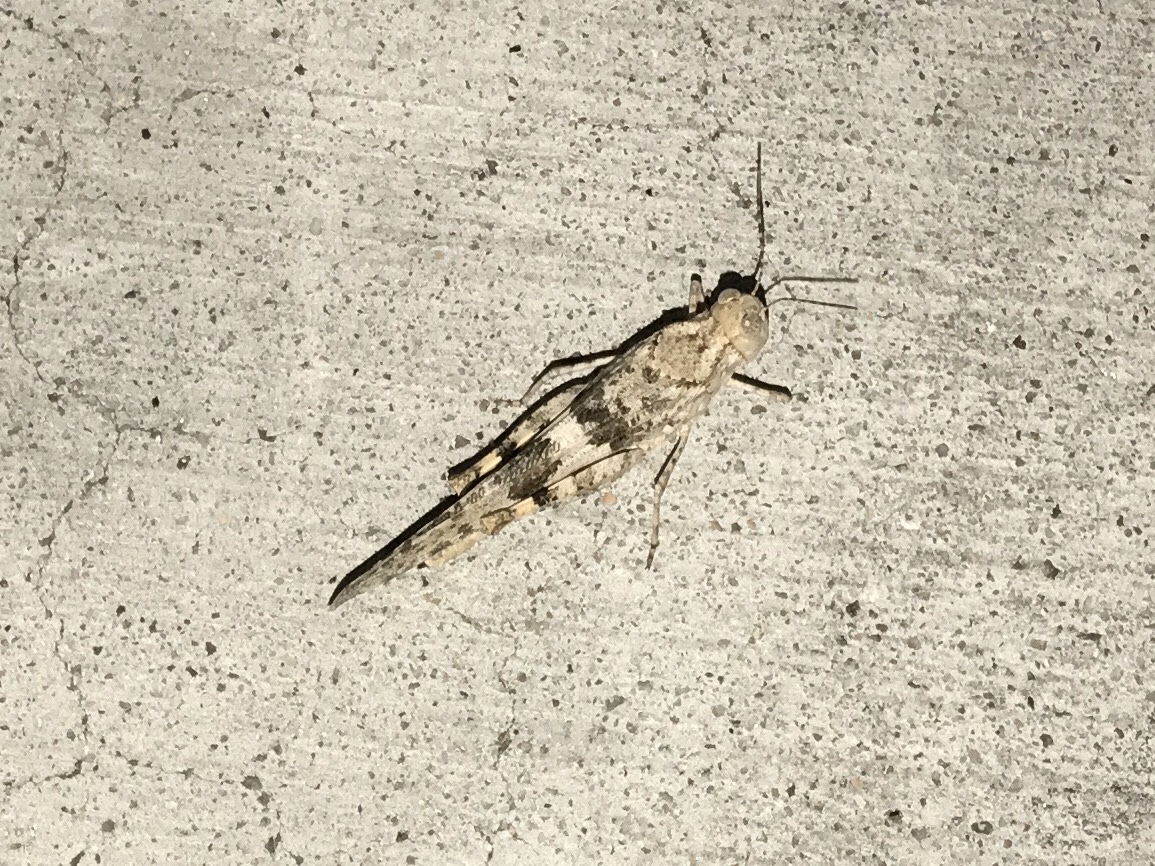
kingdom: Animalia
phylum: Arthropoda
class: Insecta
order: Orthoptera
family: Acrididae
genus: Trimerotropis
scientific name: Trimerotropis pallidipennis
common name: Pallid-winged grasshopper
